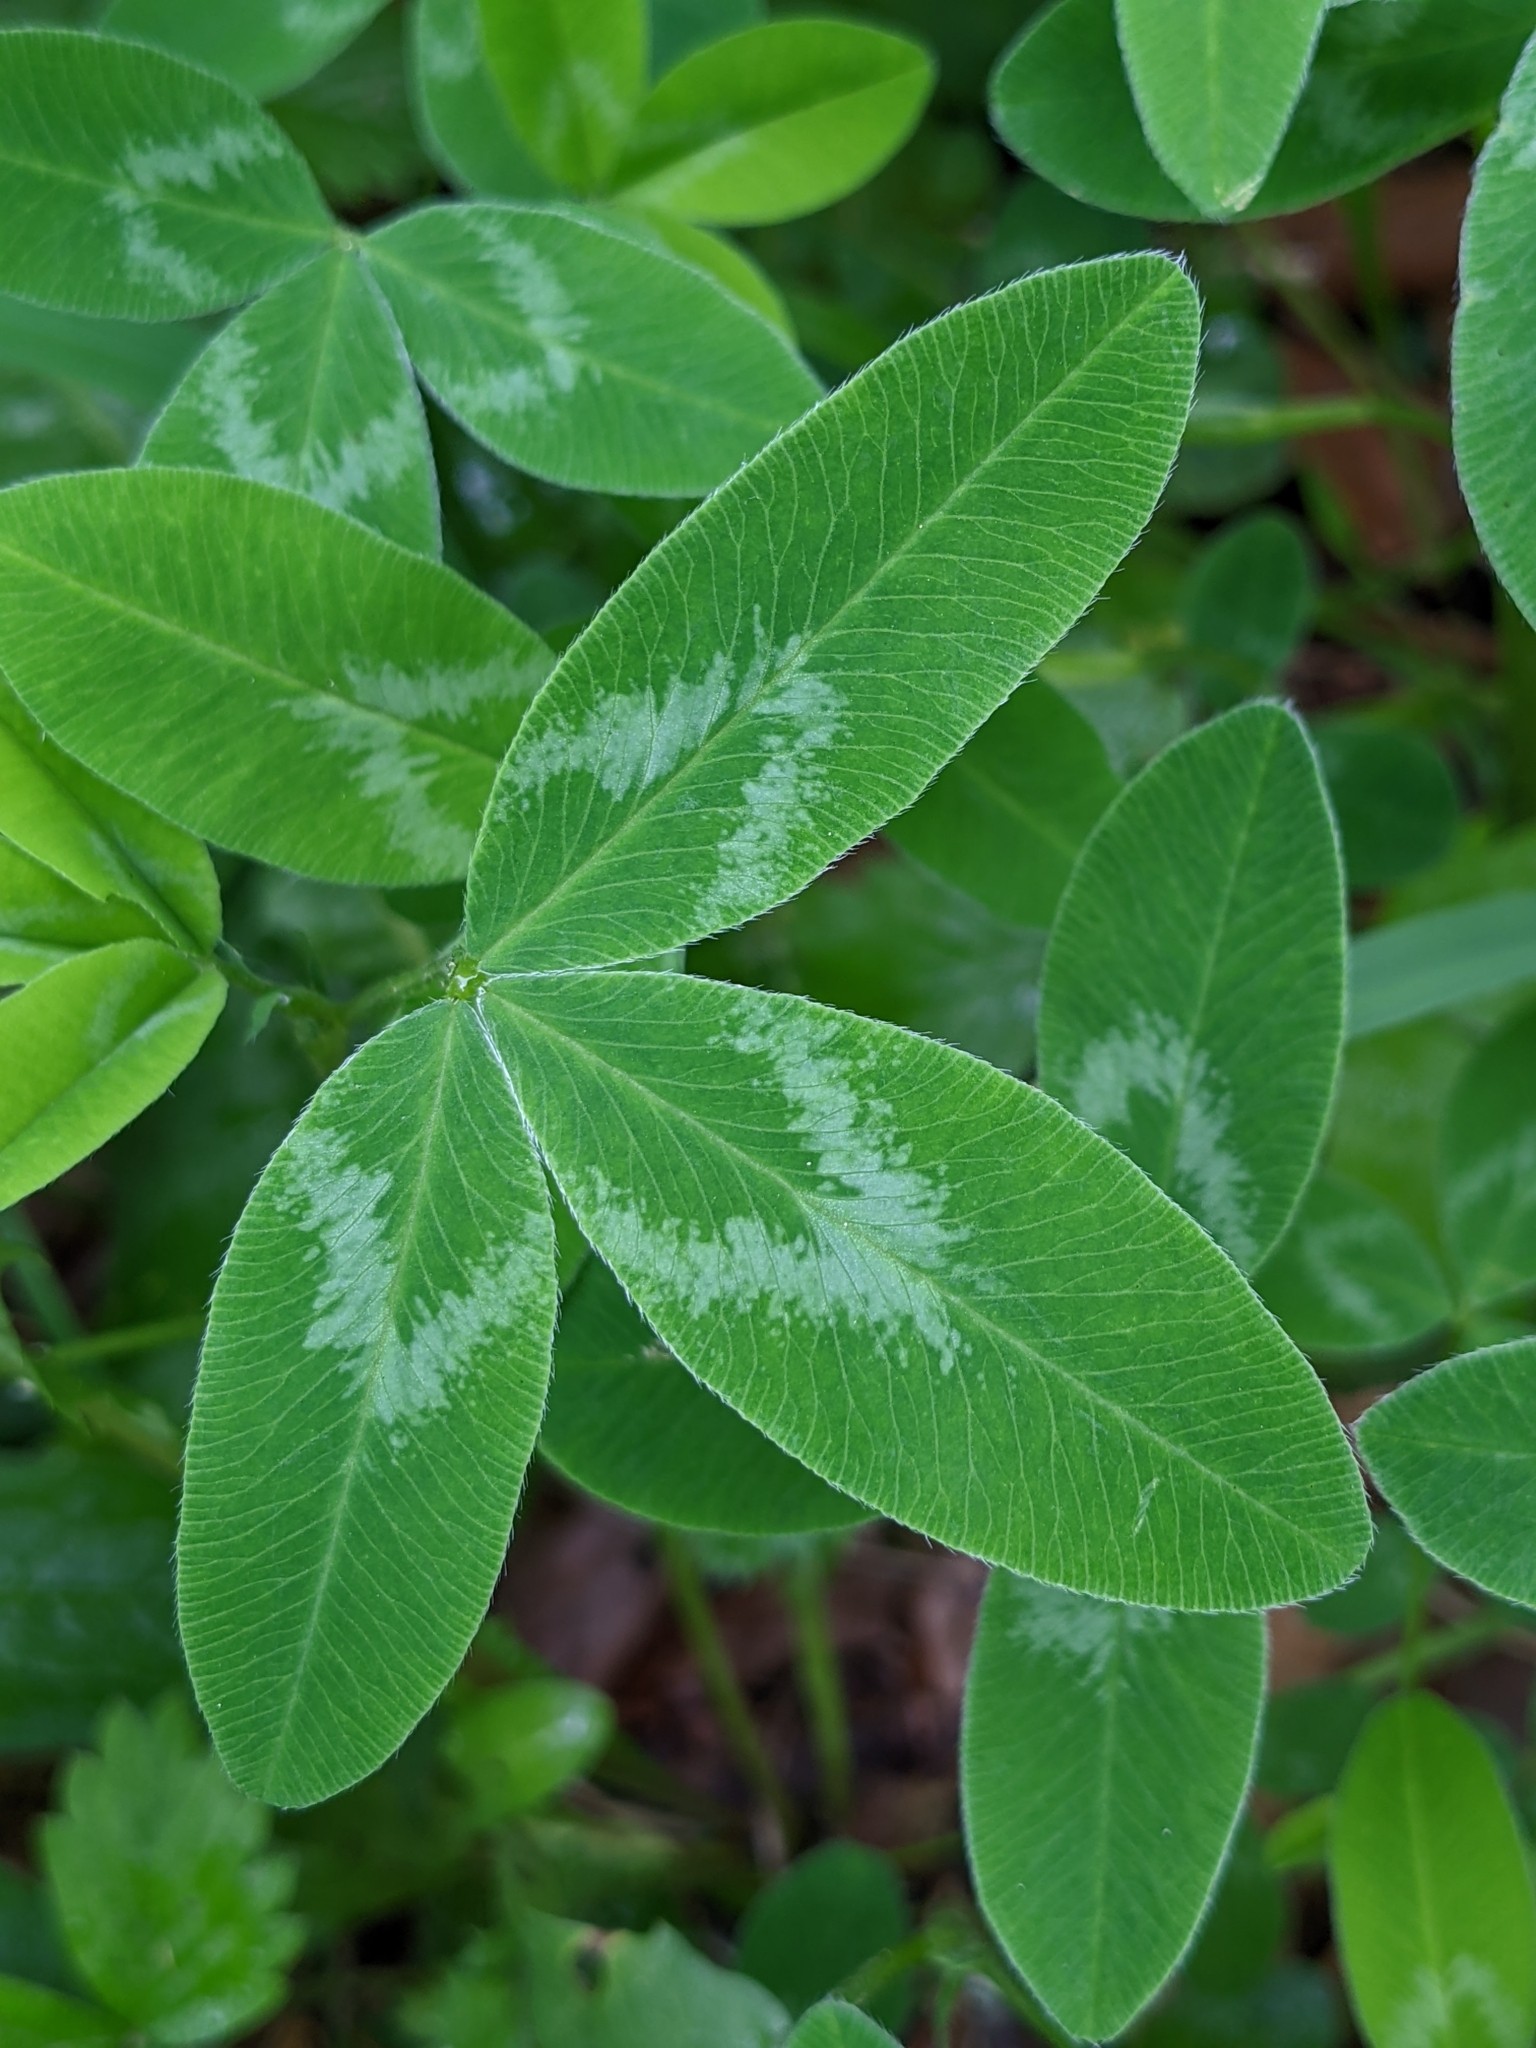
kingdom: Plantae
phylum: Tracheophyta
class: Magnoliopsida
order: Fabales
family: Fabaceae
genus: Trifolium
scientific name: Trifolium medium
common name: Zigzag clover
